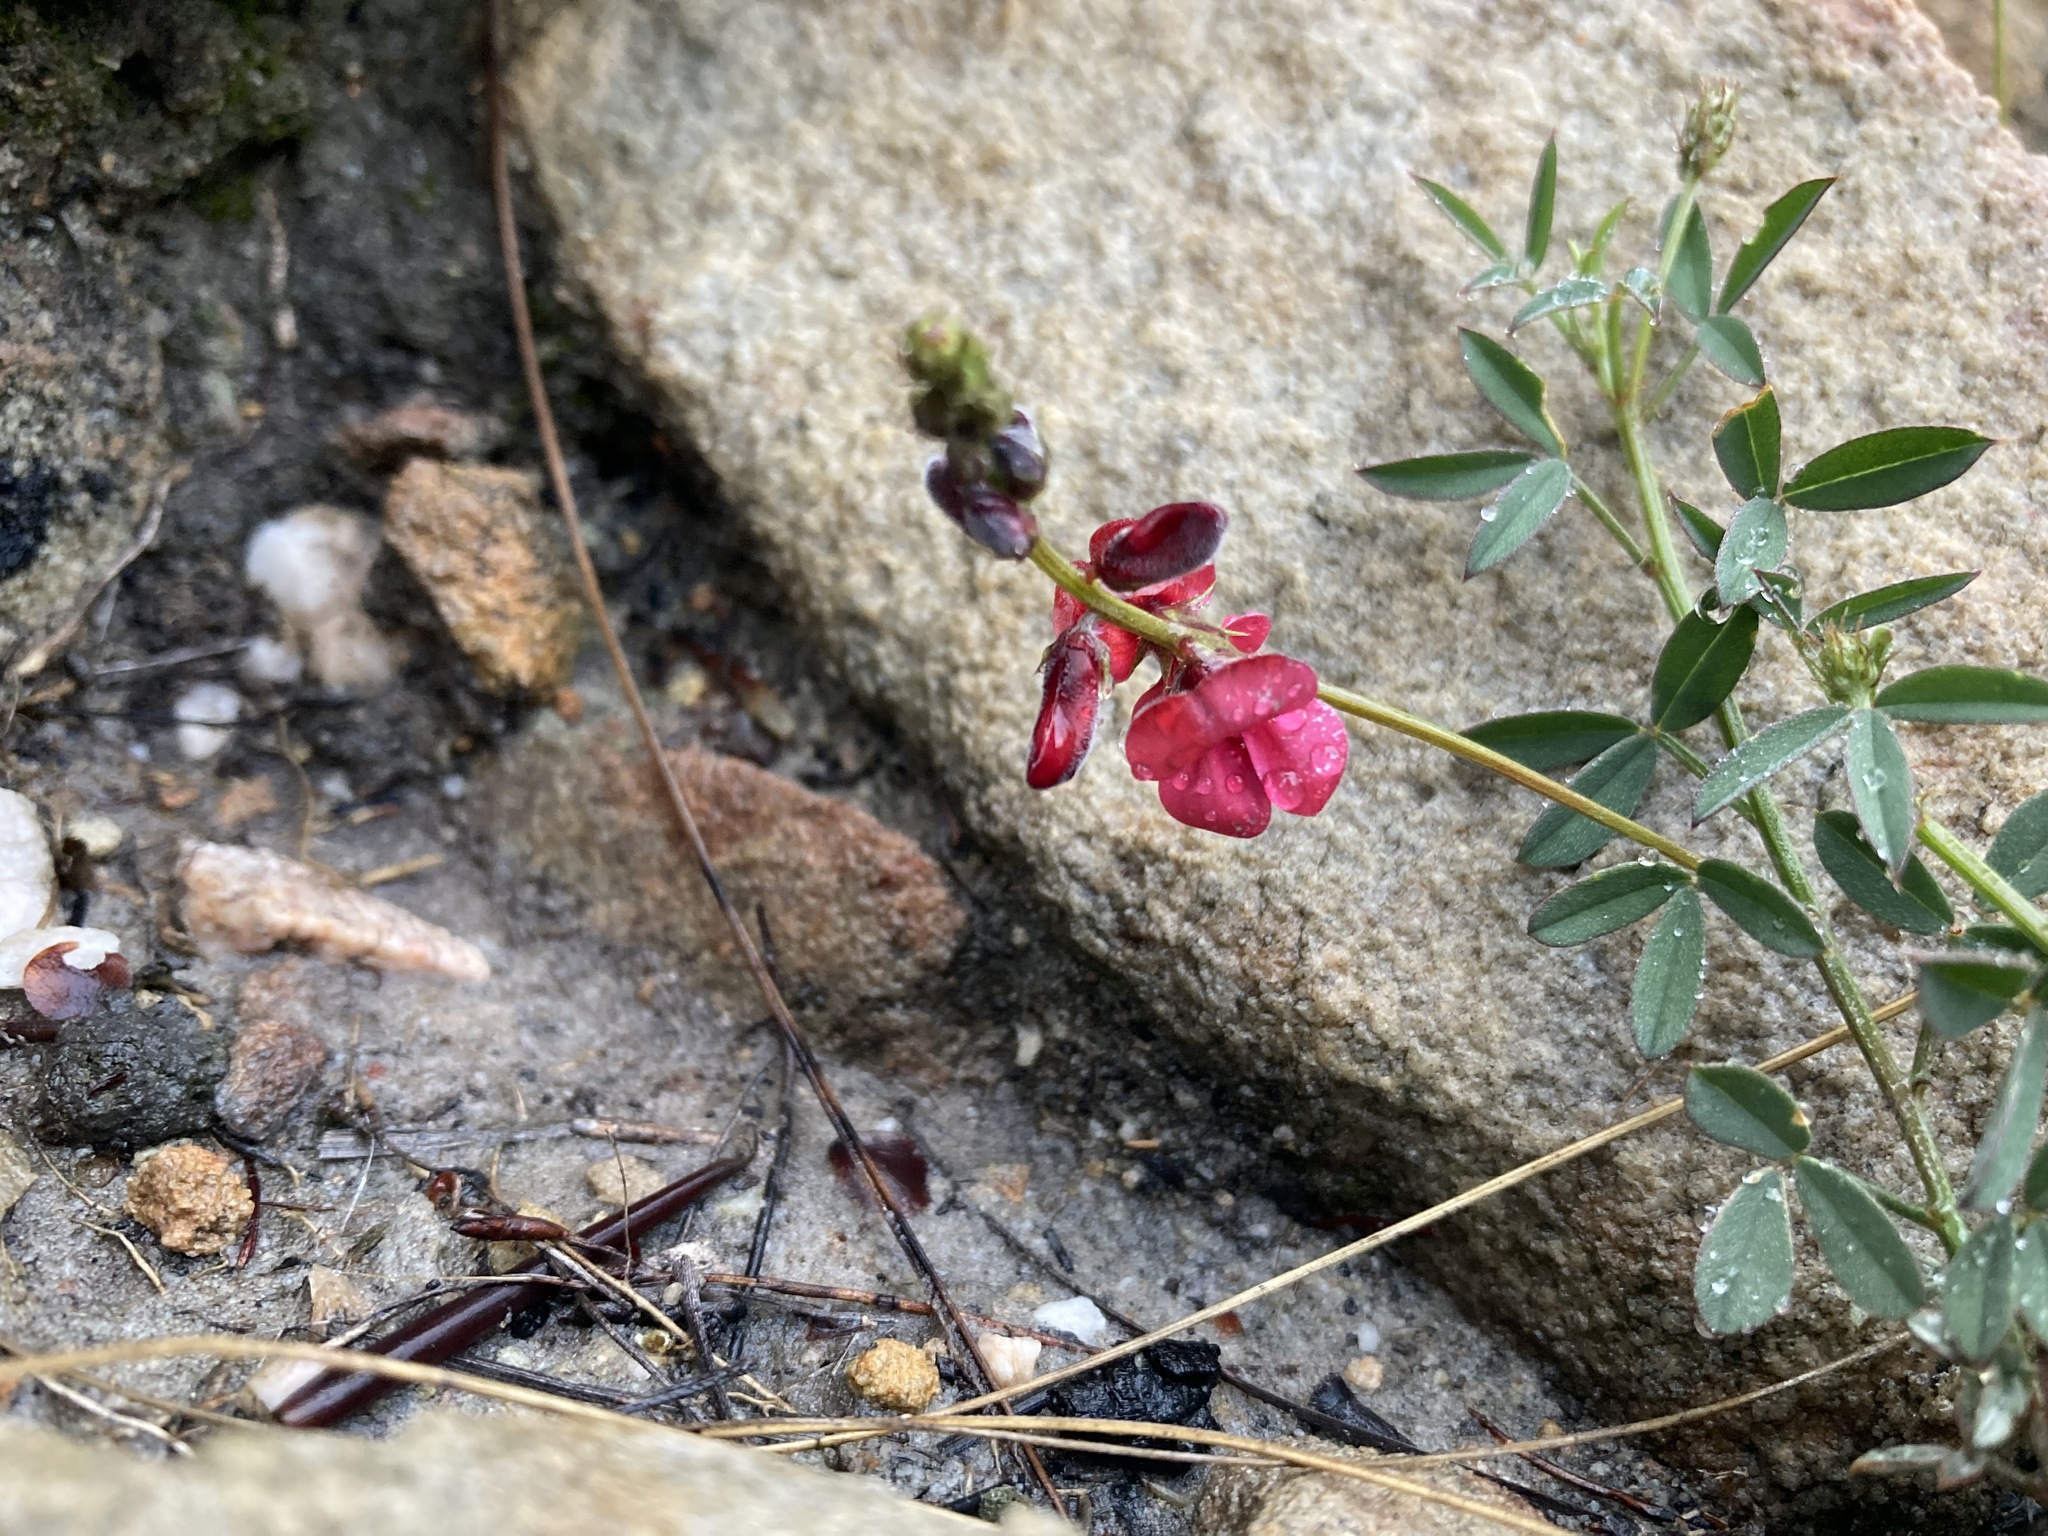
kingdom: Plantae
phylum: Tracheophyta
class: Magnoliopsida
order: Fabales
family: Fabaceae
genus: Indigofera
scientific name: Indigofera heterophylla
